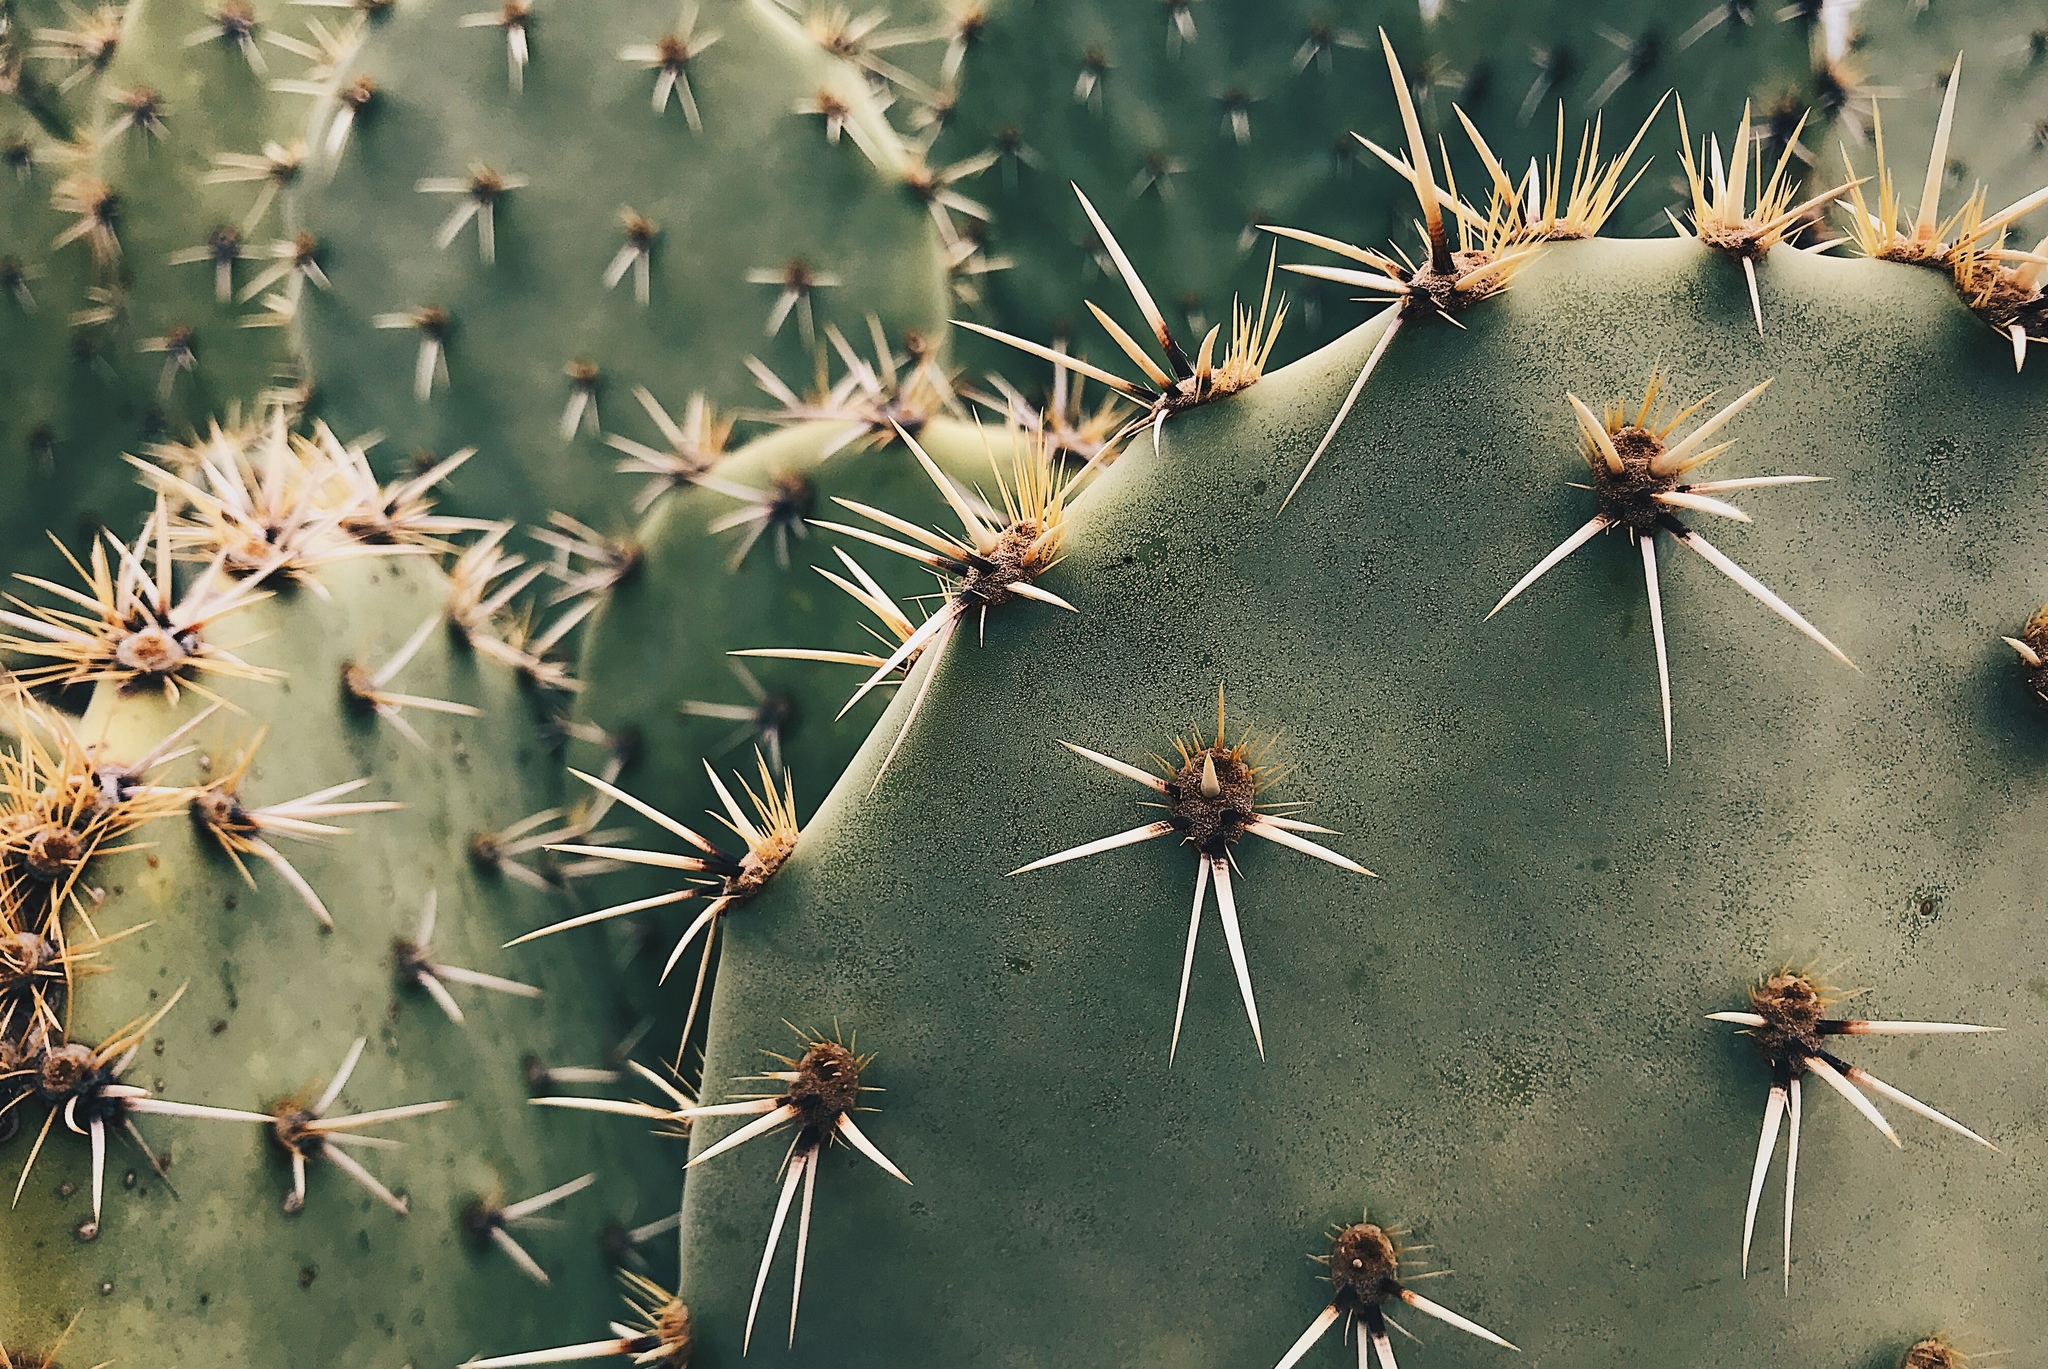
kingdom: Plantae
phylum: Tracheophyta
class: Magnoliopsida
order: Caryophyllales
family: Cactaceae
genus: Opuntia
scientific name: Opuntia rastrera
